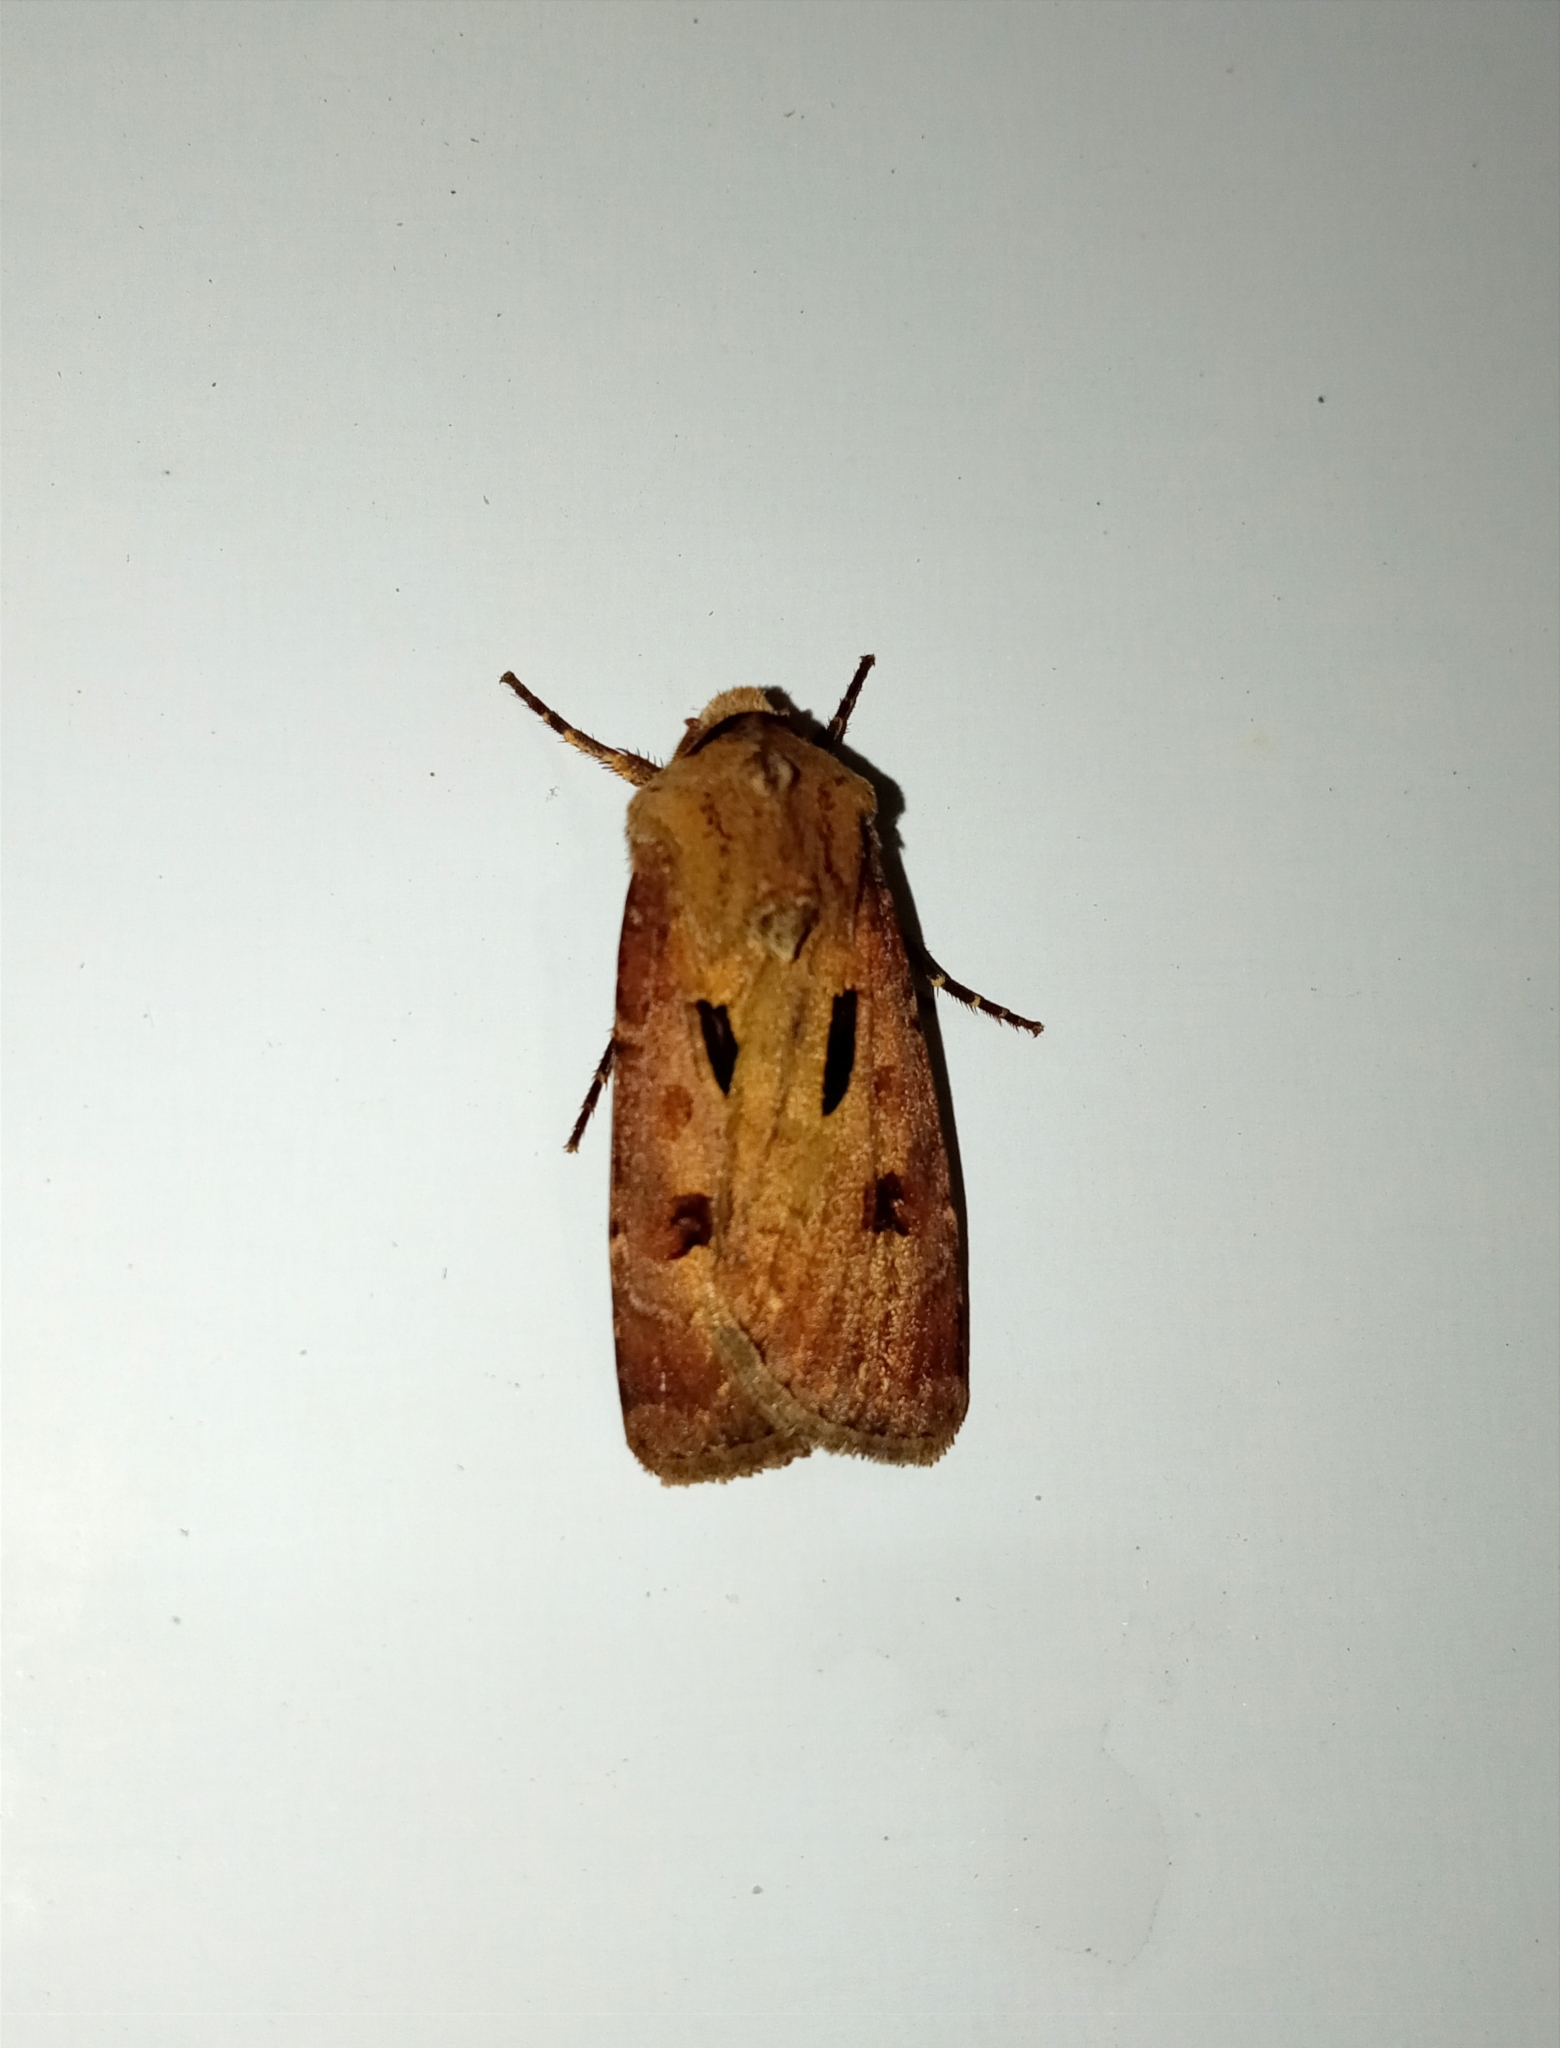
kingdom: Animalia
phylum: Arthropoda
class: Insecta
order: Lepidoptera
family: Noctuidae
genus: Agrotis
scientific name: Agrotis exclamationis
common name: Heart and dart
